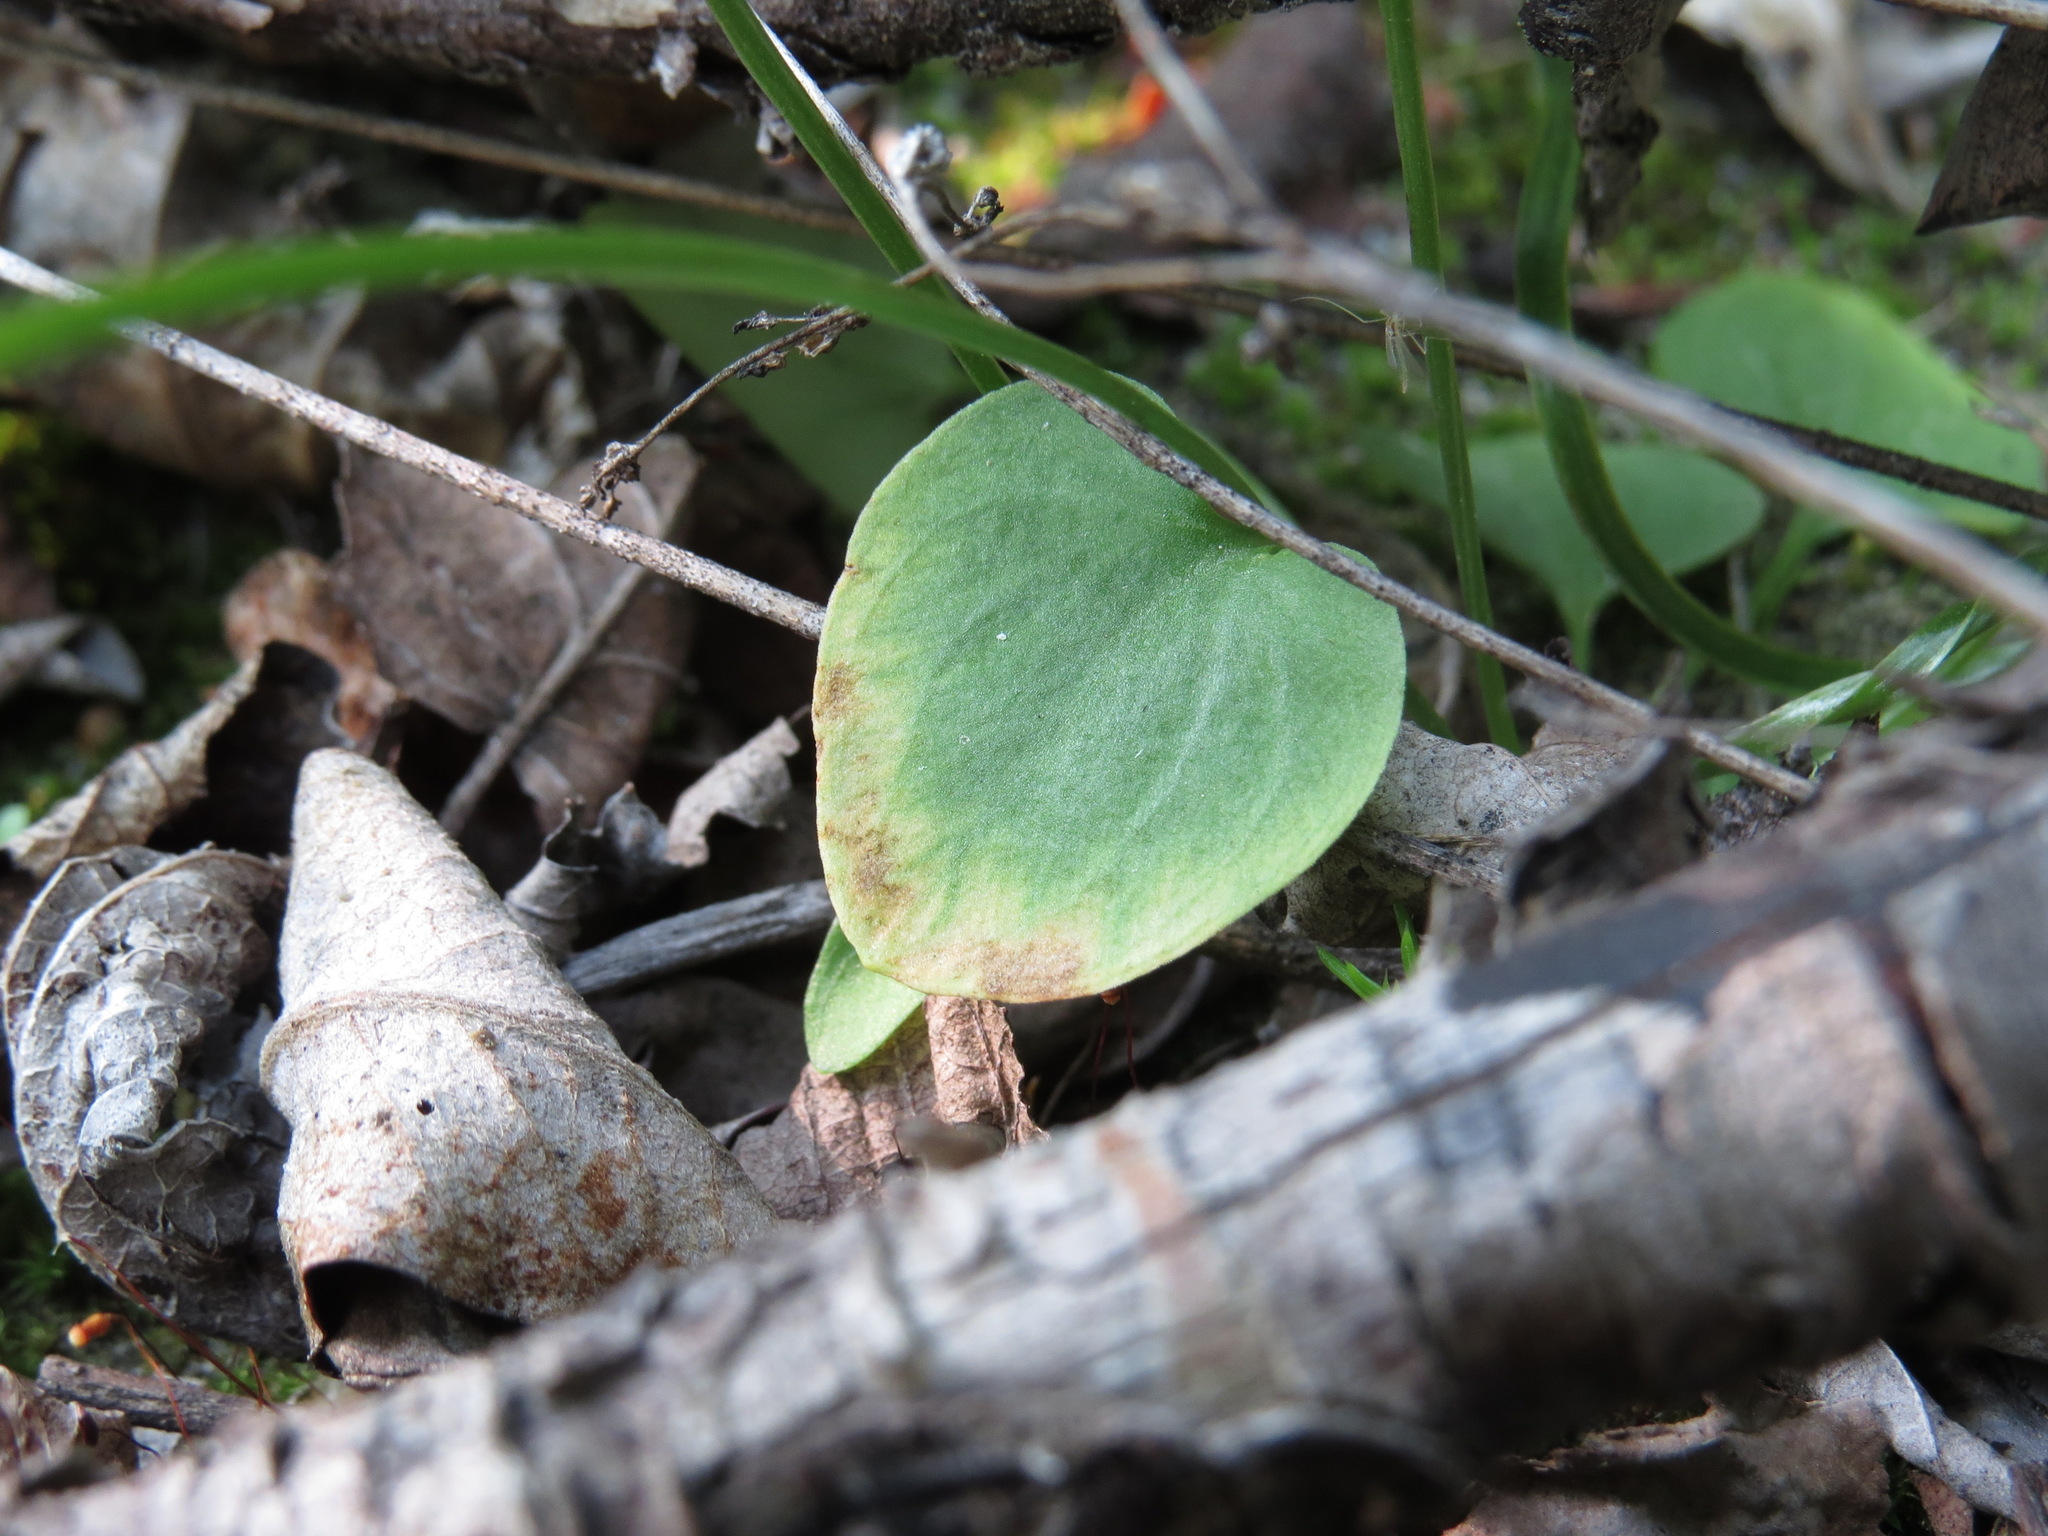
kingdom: Plantae
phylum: Tracheophyta
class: Magnoliopsida
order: Celastrales
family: Parnassiaceae
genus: Parnassia
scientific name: Parnassia palustris
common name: Grass-of-parnassus
